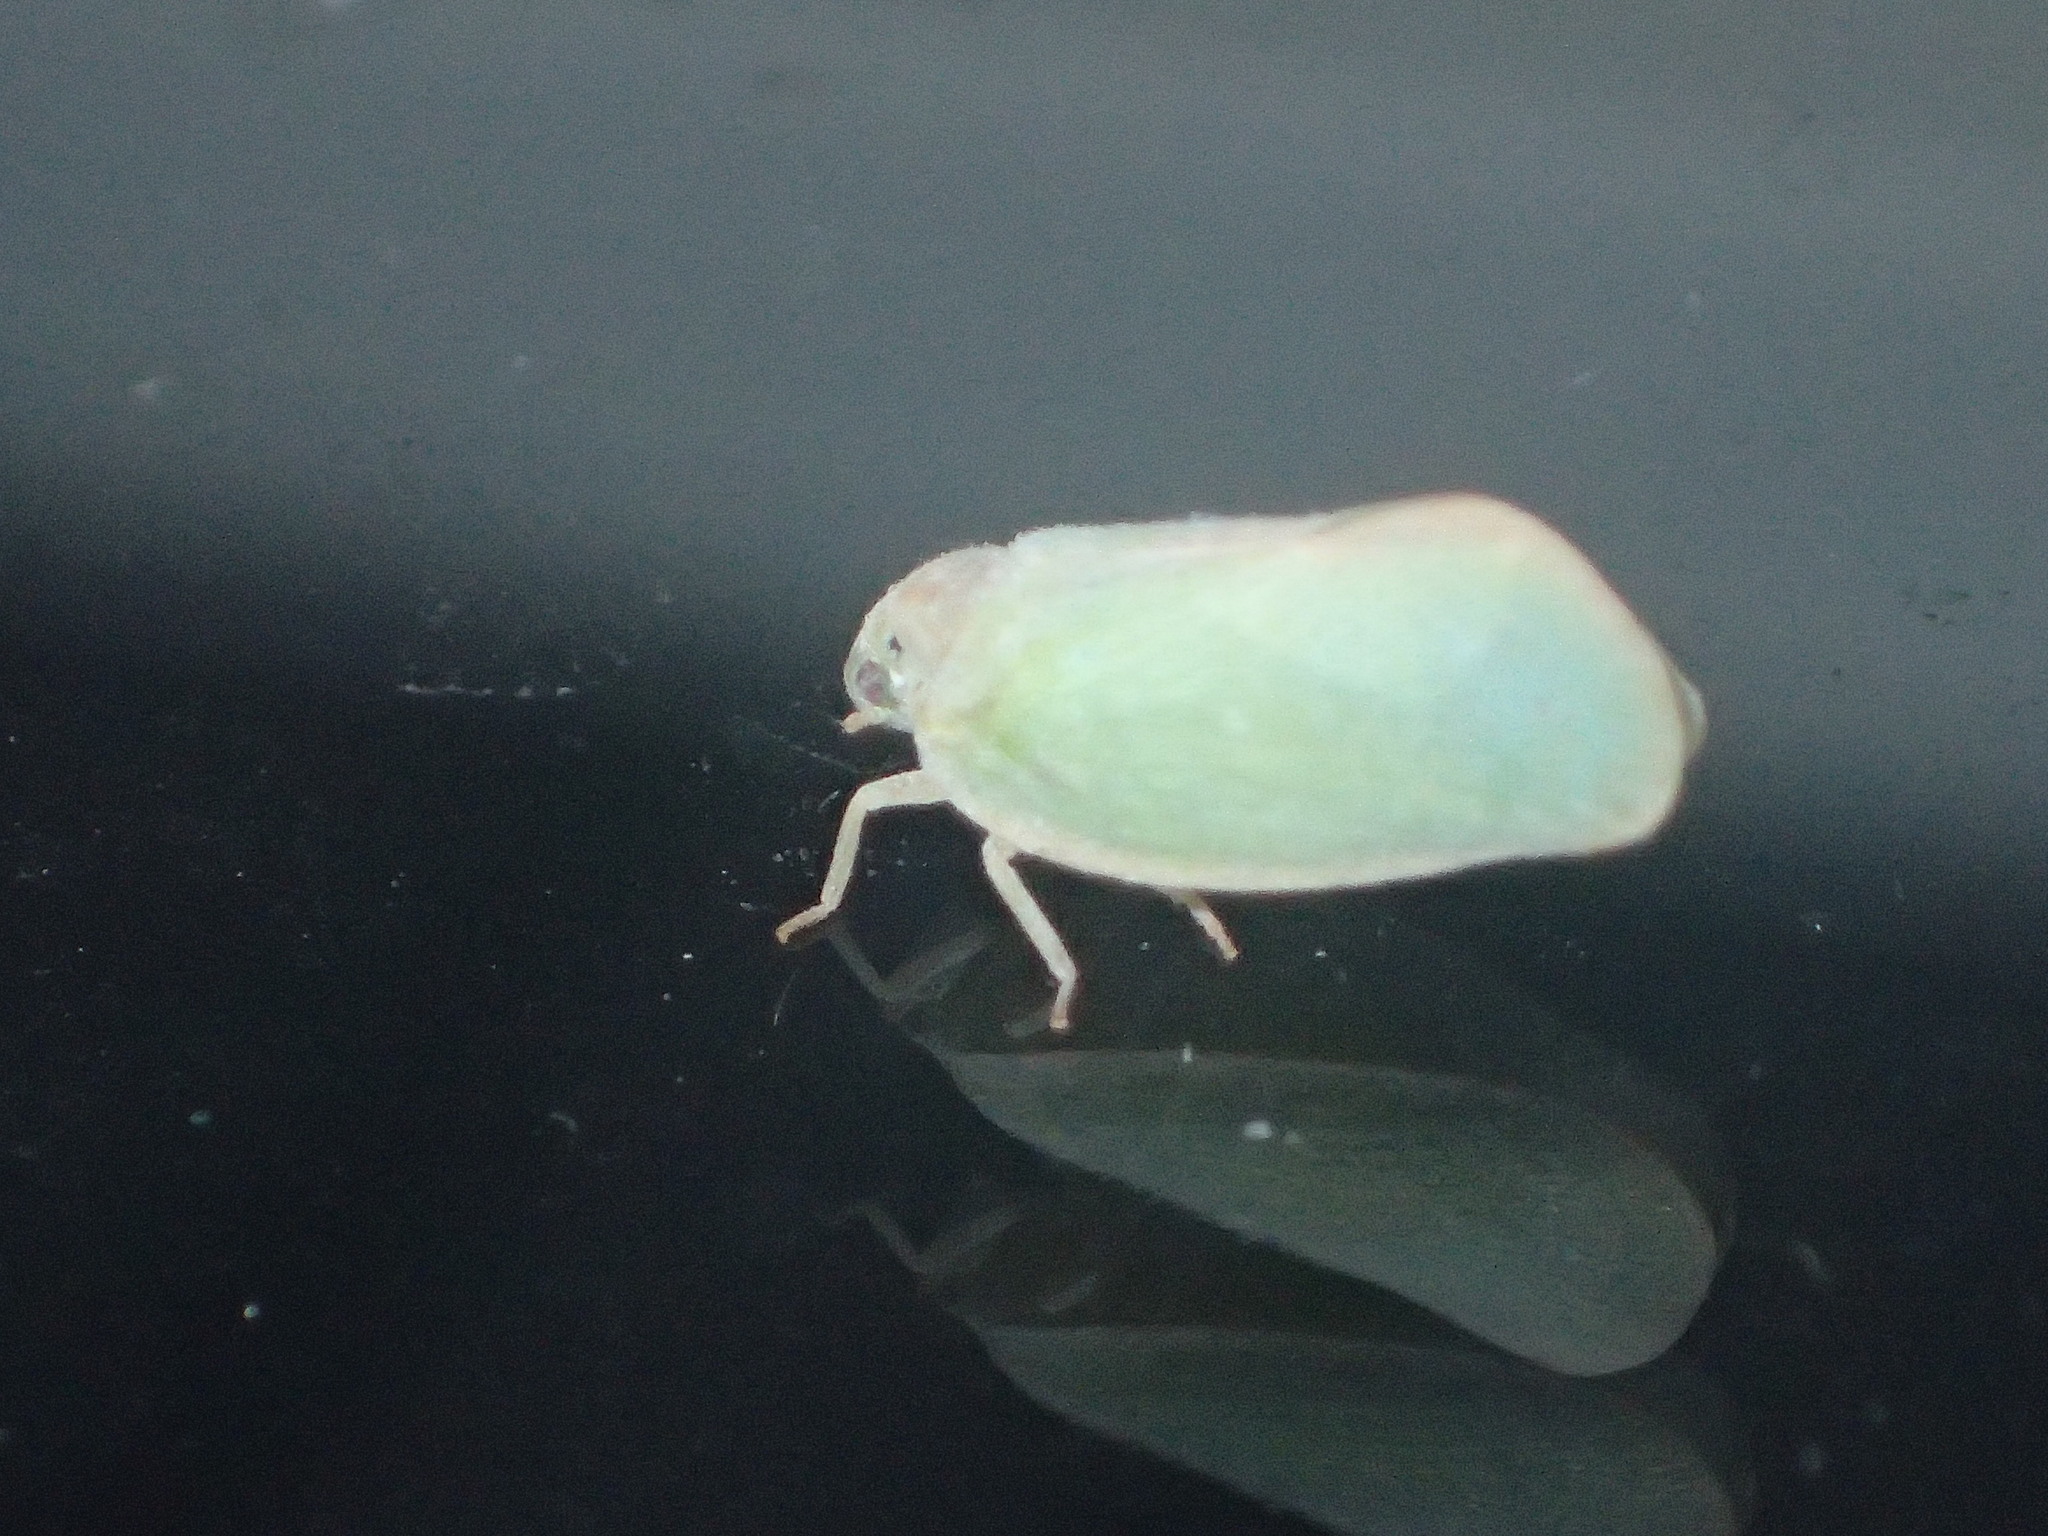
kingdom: Animalia
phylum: Arthropoda
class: Insecta
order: Hemiptera
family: Flatidae
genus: Ormenoides
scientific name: Ormenoides venusta
